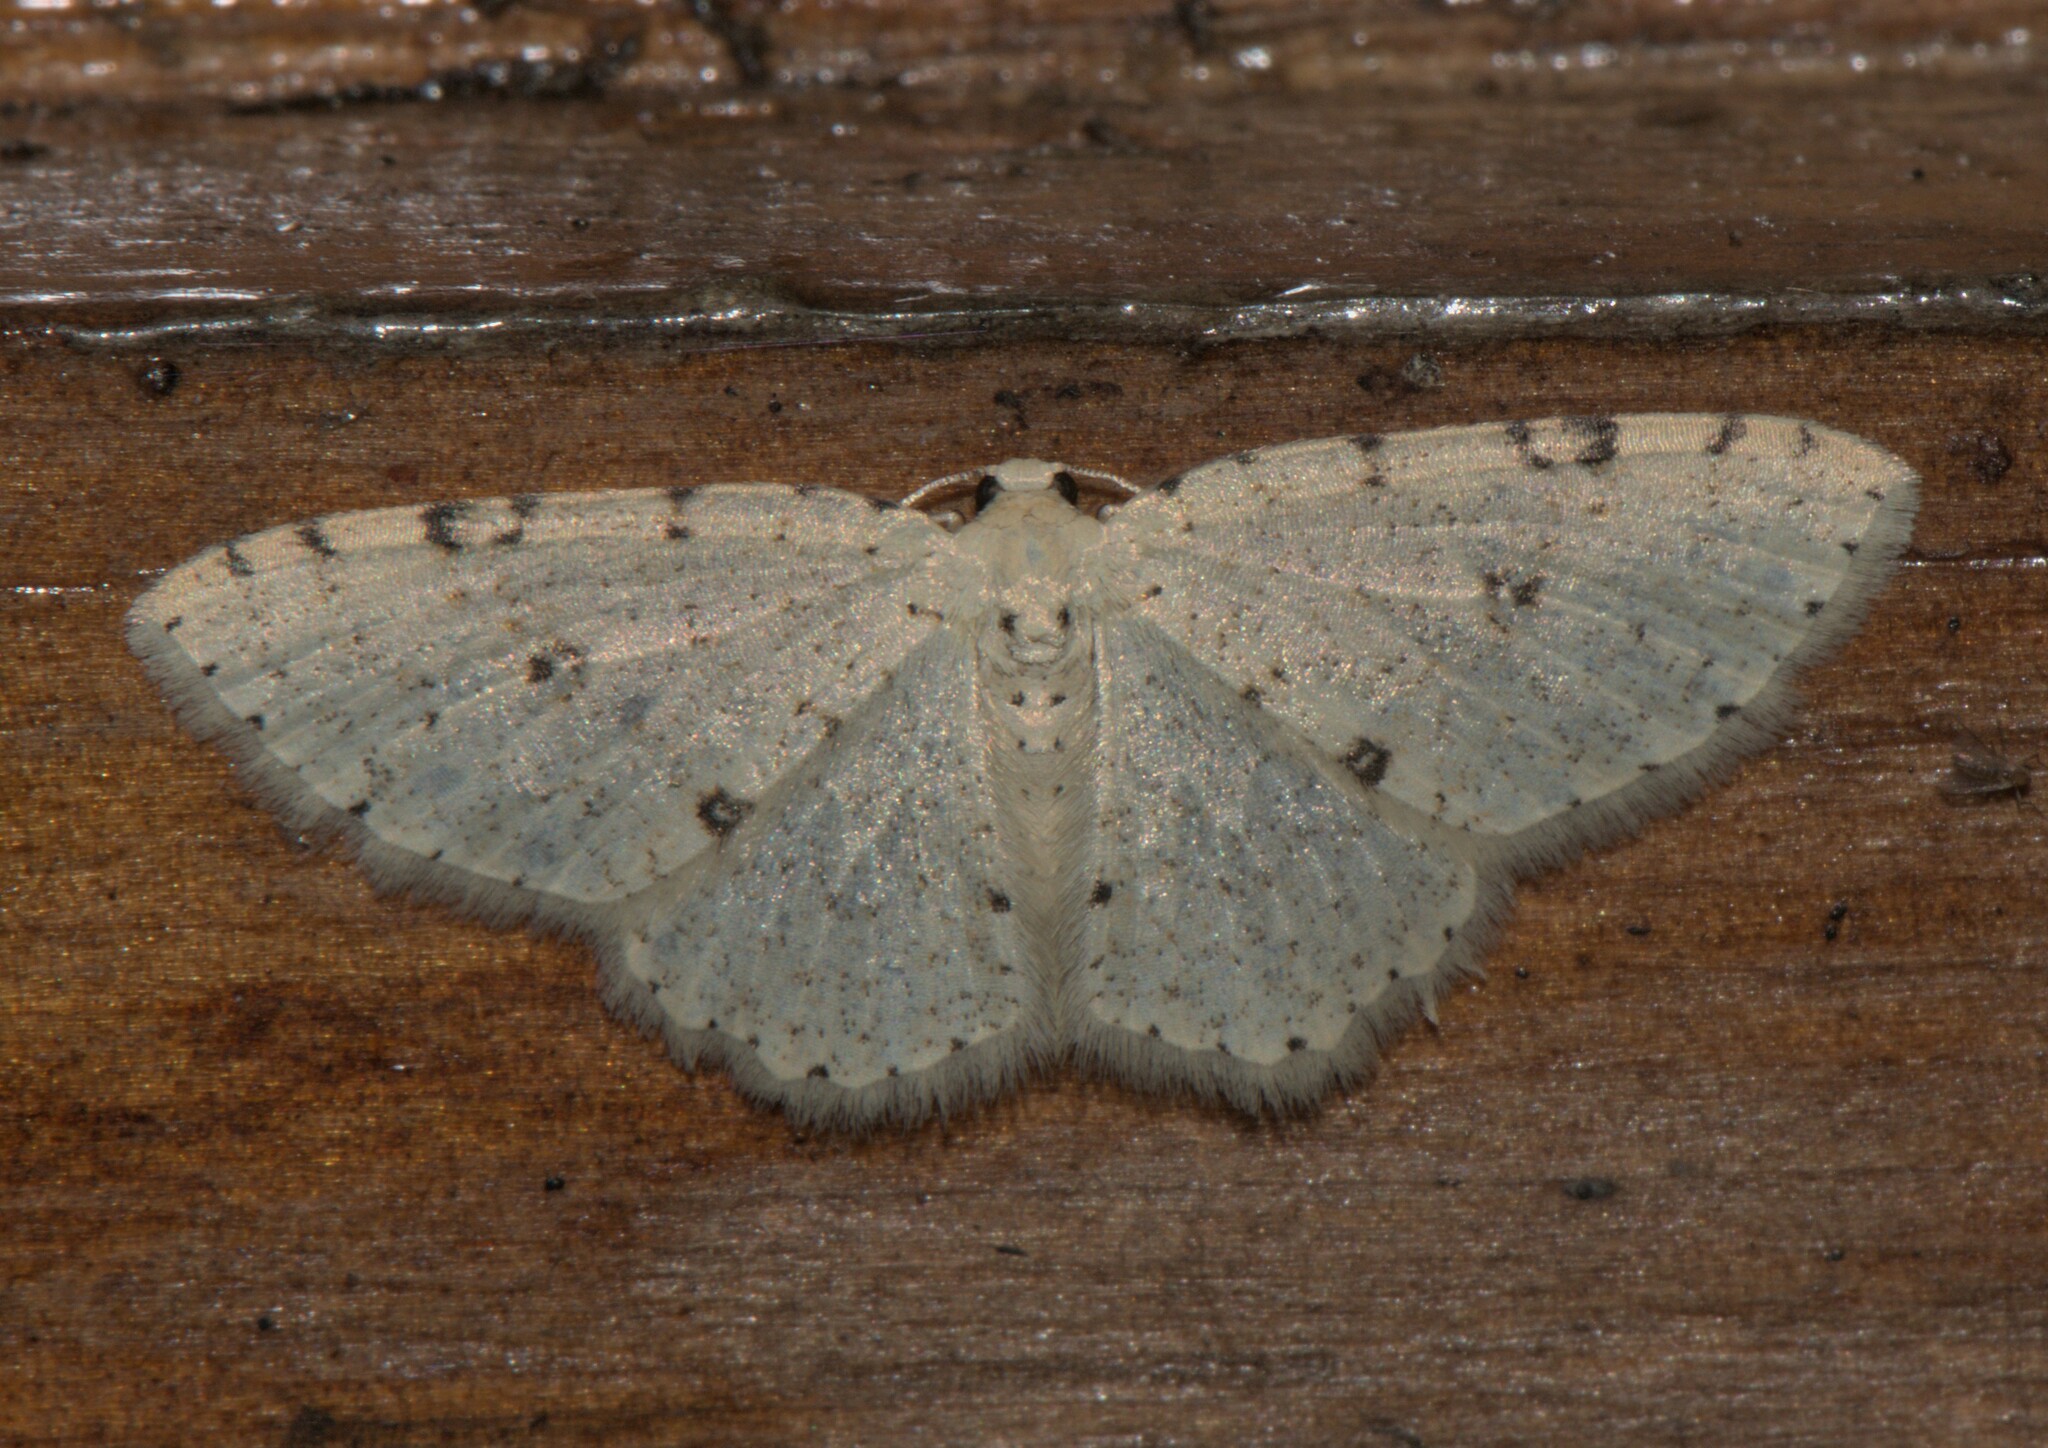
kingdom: Animalia
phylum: Arthropoda
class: Insecta
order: Lepidoptera
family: Geometridae
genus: Hydrelia
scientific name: Hydrelia marginepunctata
